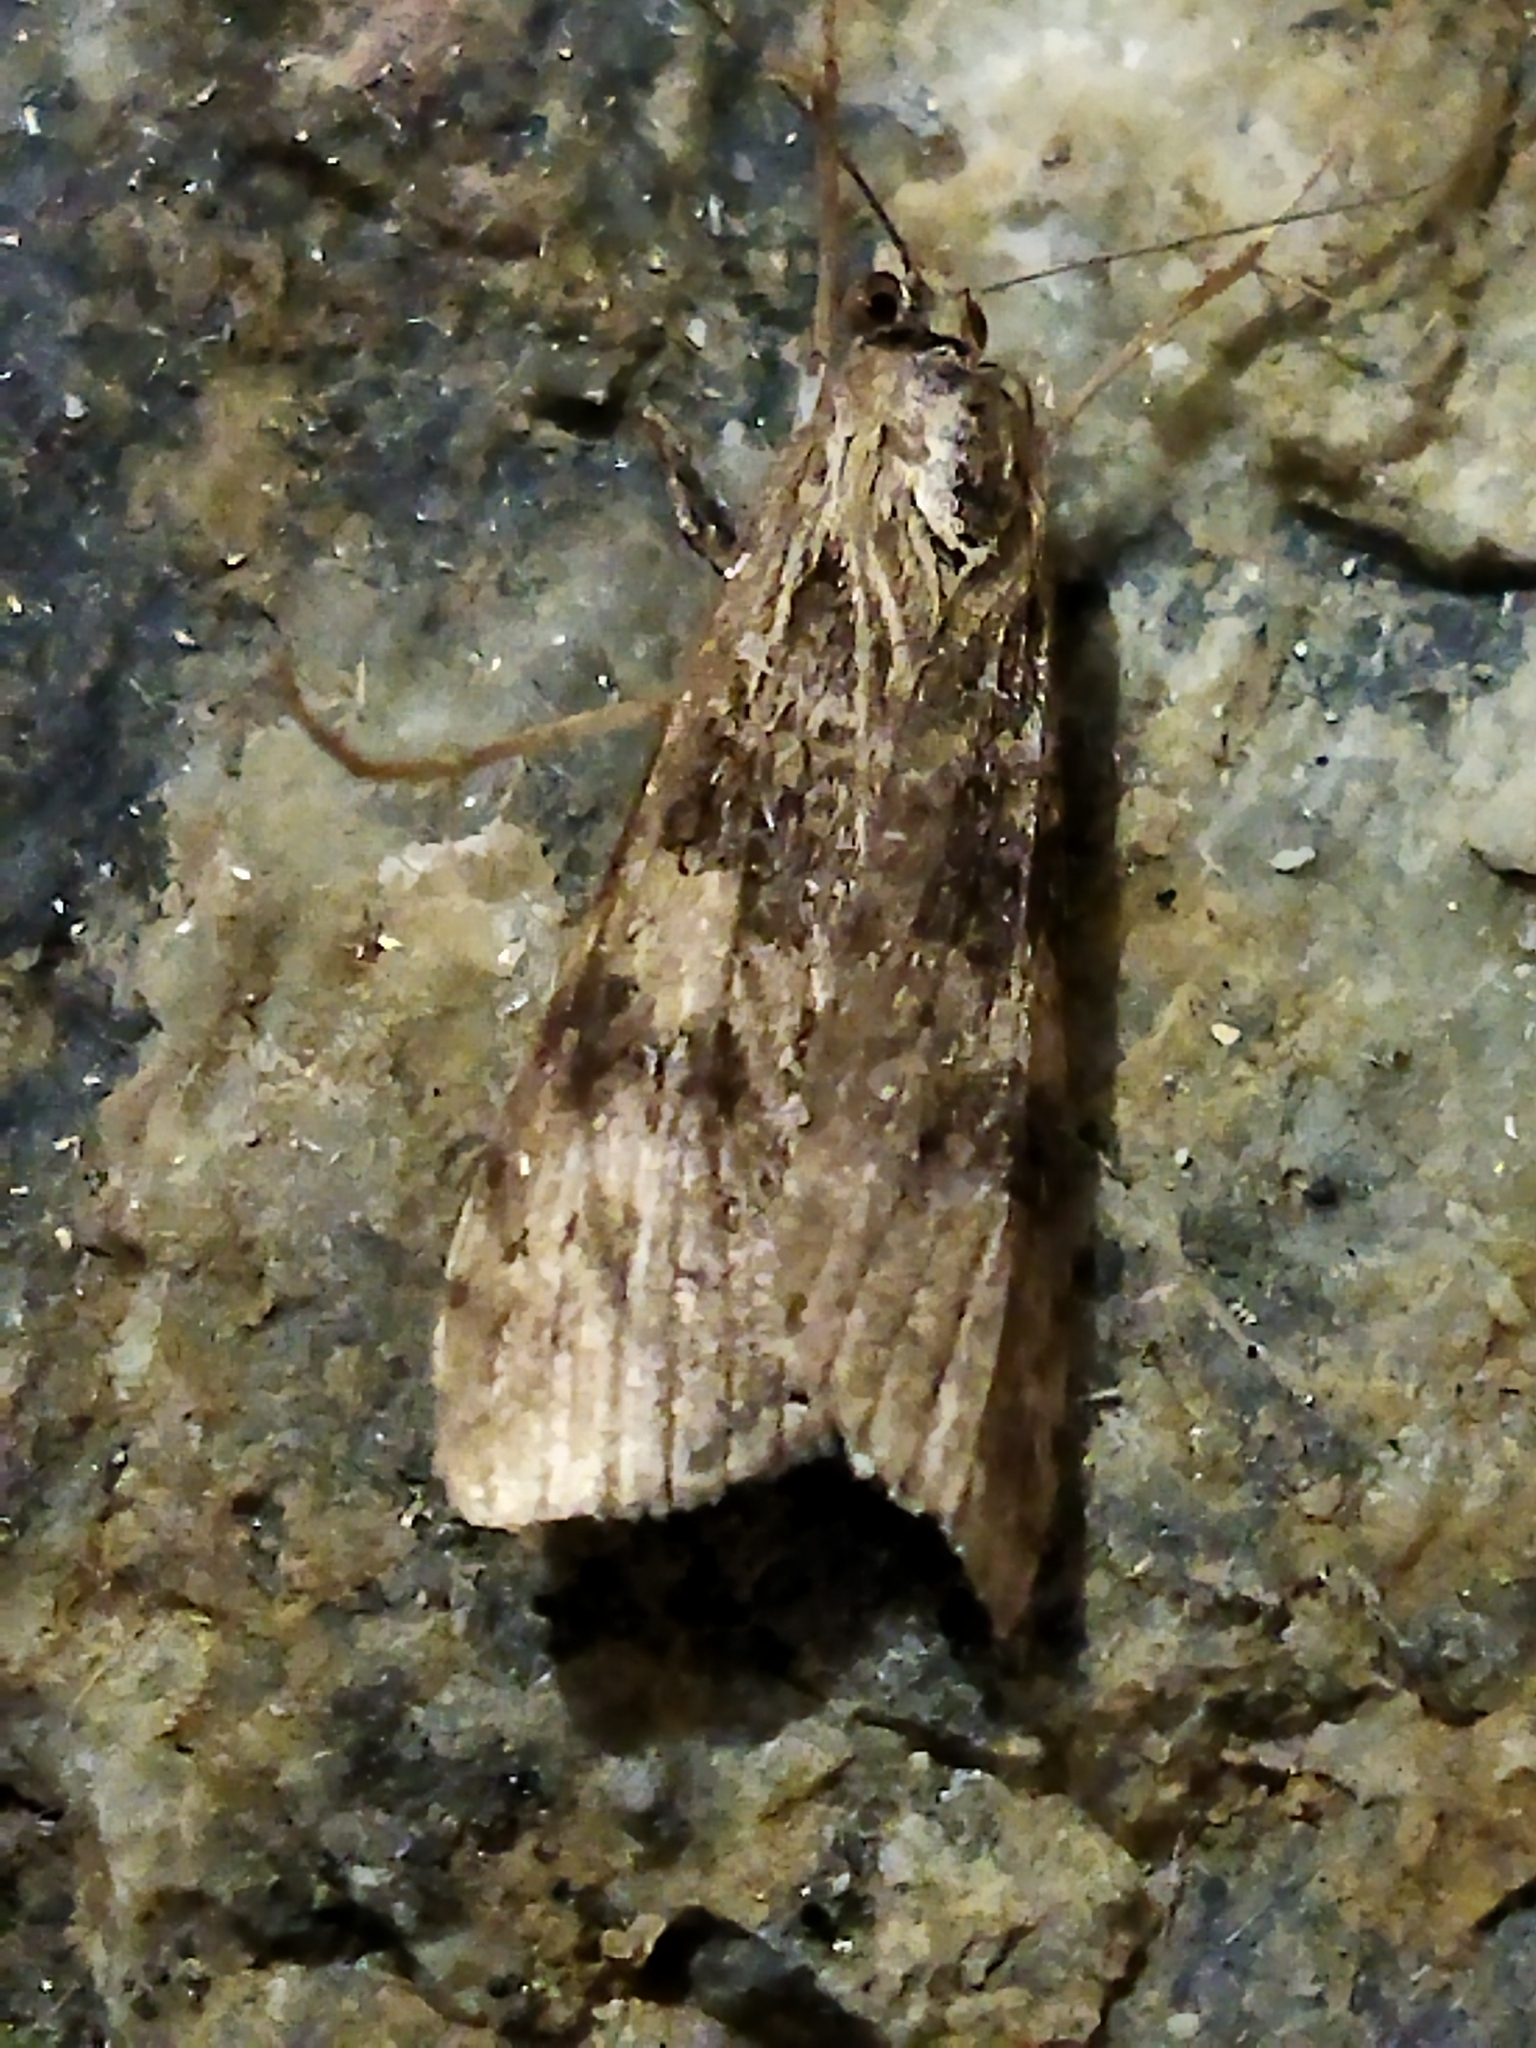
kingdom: Animalia
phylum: Arthropoda
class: Insecta
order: Lepidoptera
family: Crambidae
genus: Nomophila
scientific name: Nomophila noctuella
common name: Rush veneer
